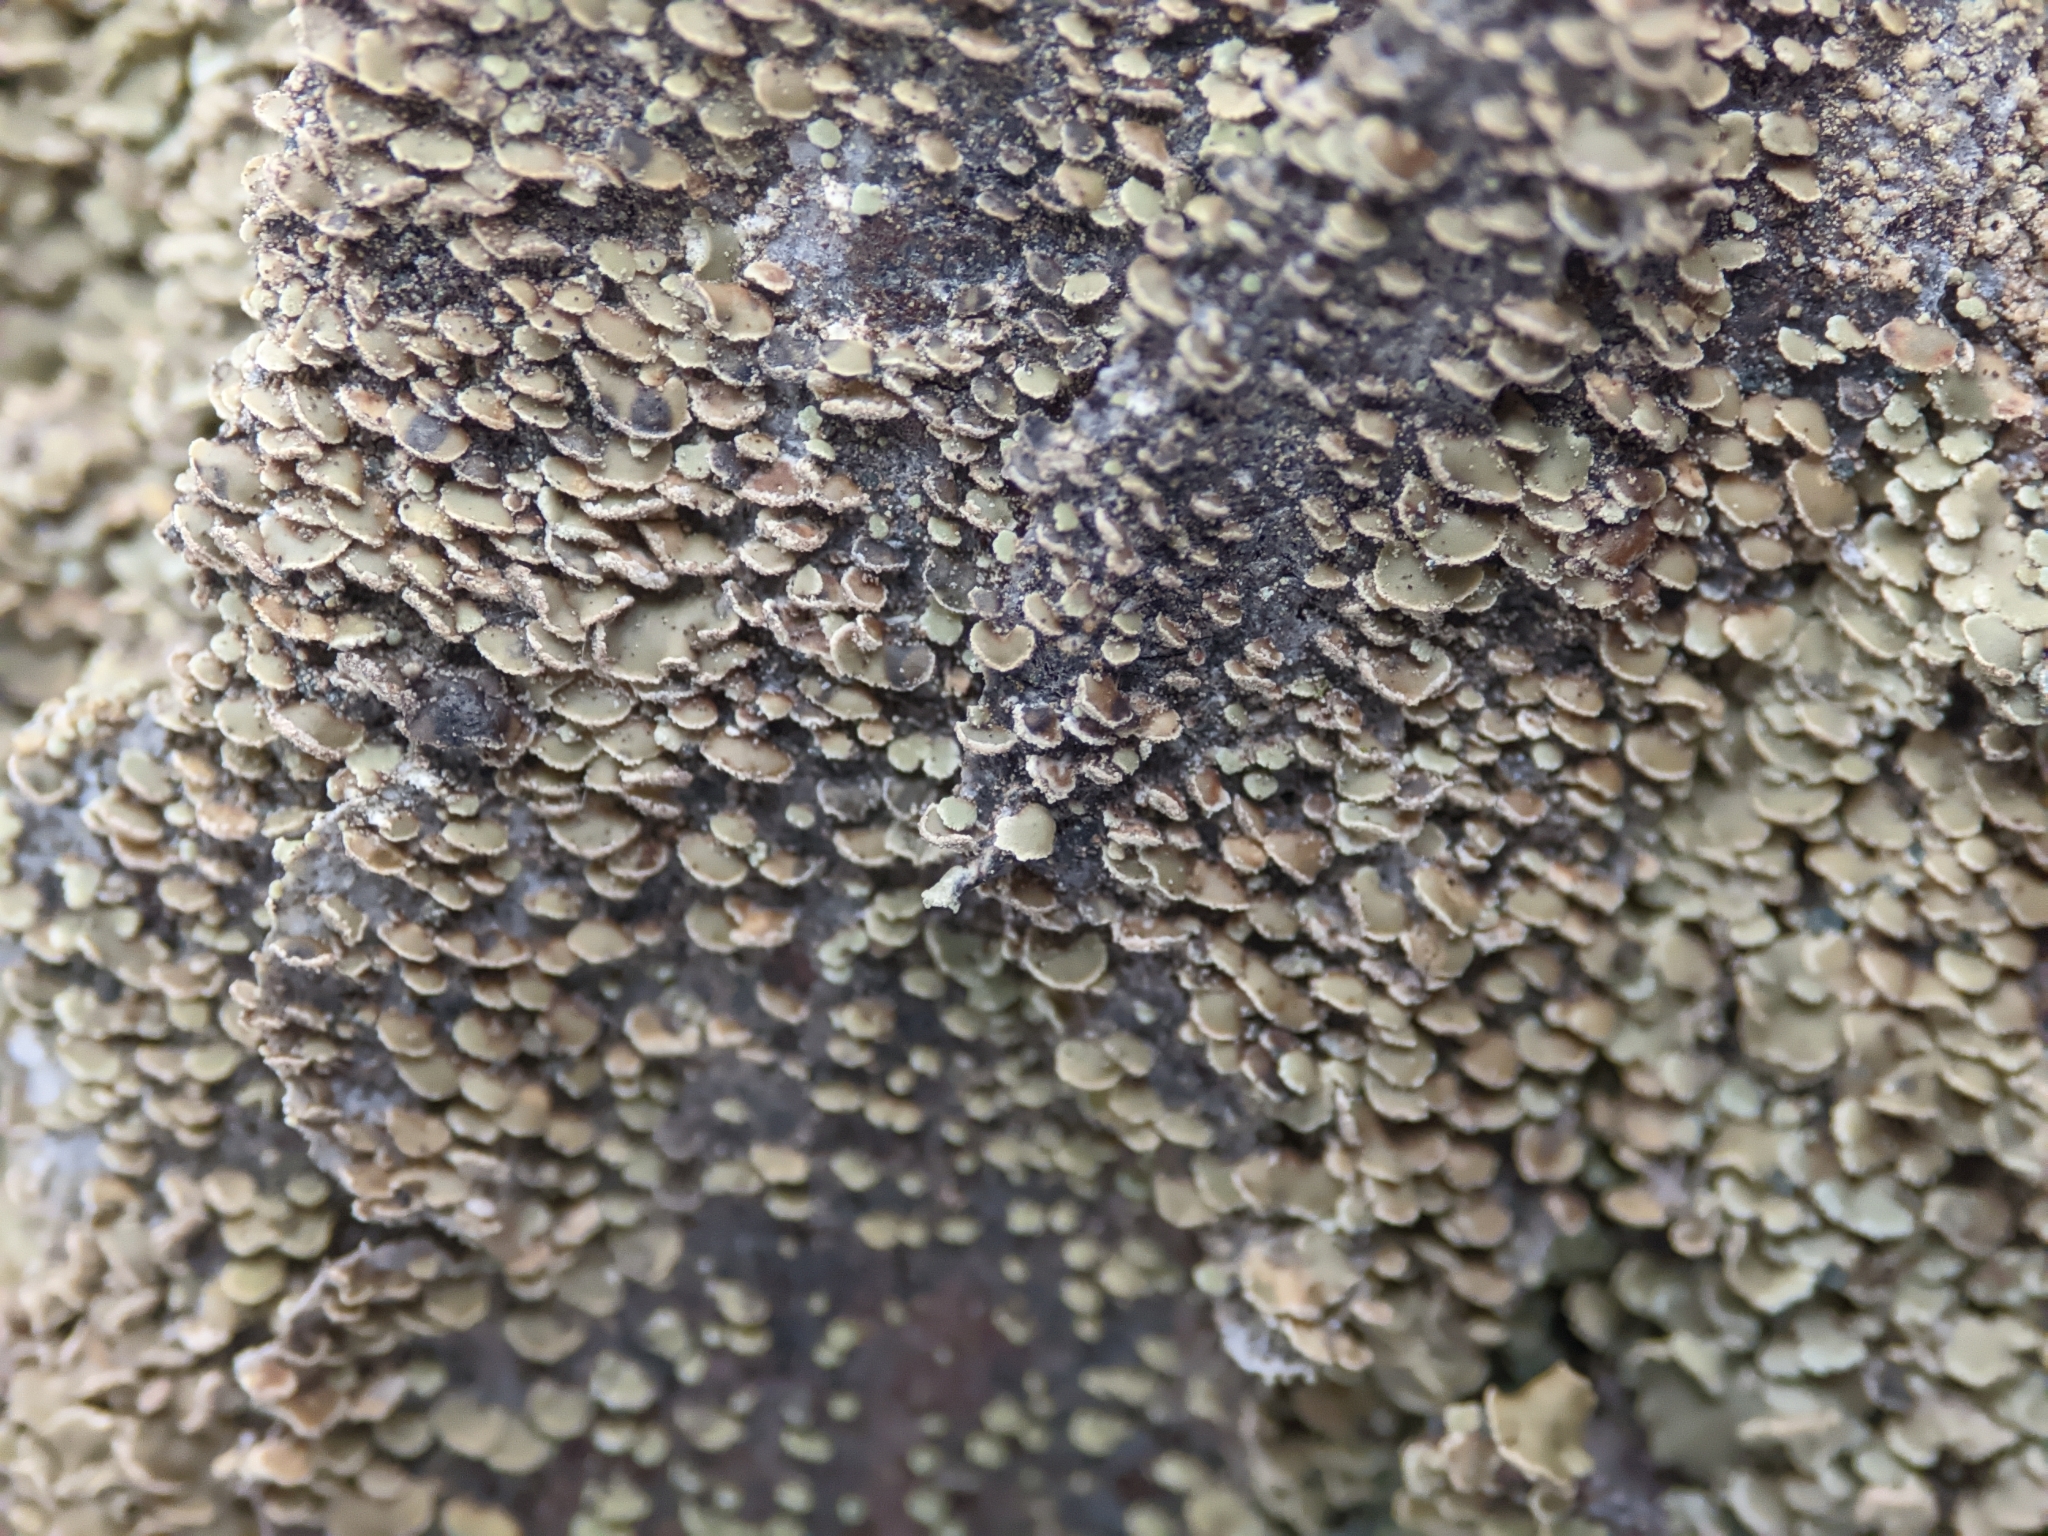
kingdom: Fungi
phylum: Ascomycota
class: Lecanoromycetes
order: Umbilicariales
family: Ophioparmaceae
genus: Hypocenomyce
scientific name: Hypocenomyce scalaris
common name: Common clam lichen
